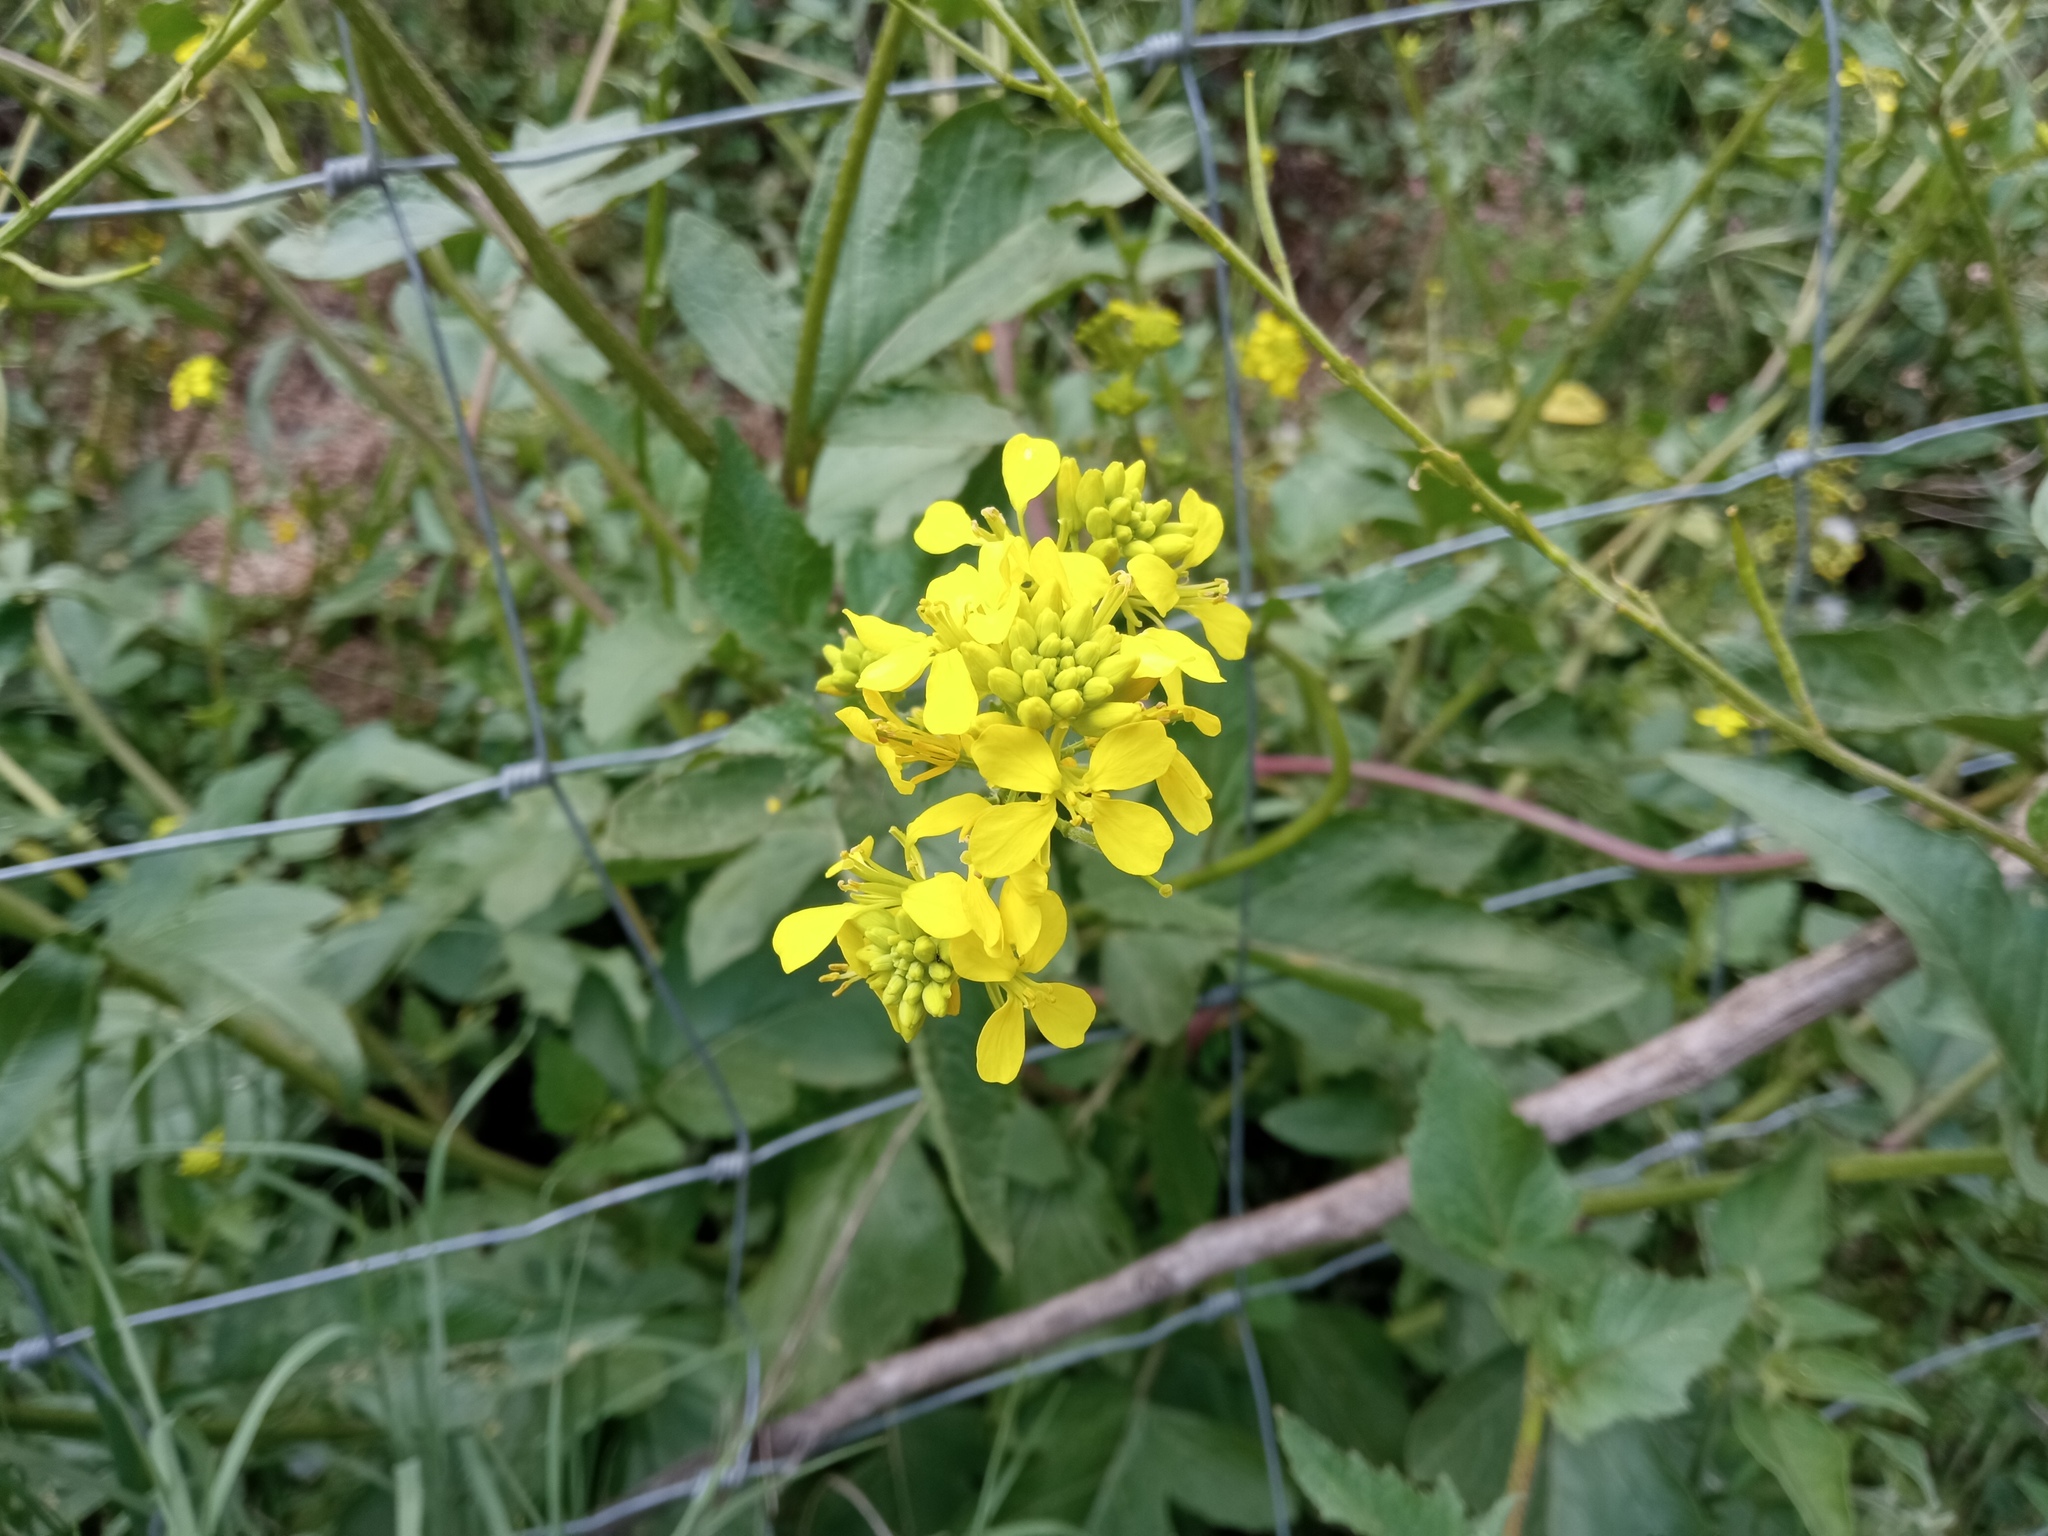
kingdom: Plantae
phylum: Tracheophyta
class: Magnoliopsida
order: Brassicales
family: Brassicaceae
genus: Sinapis
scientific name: Sinapis arvensis
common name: Charlock
